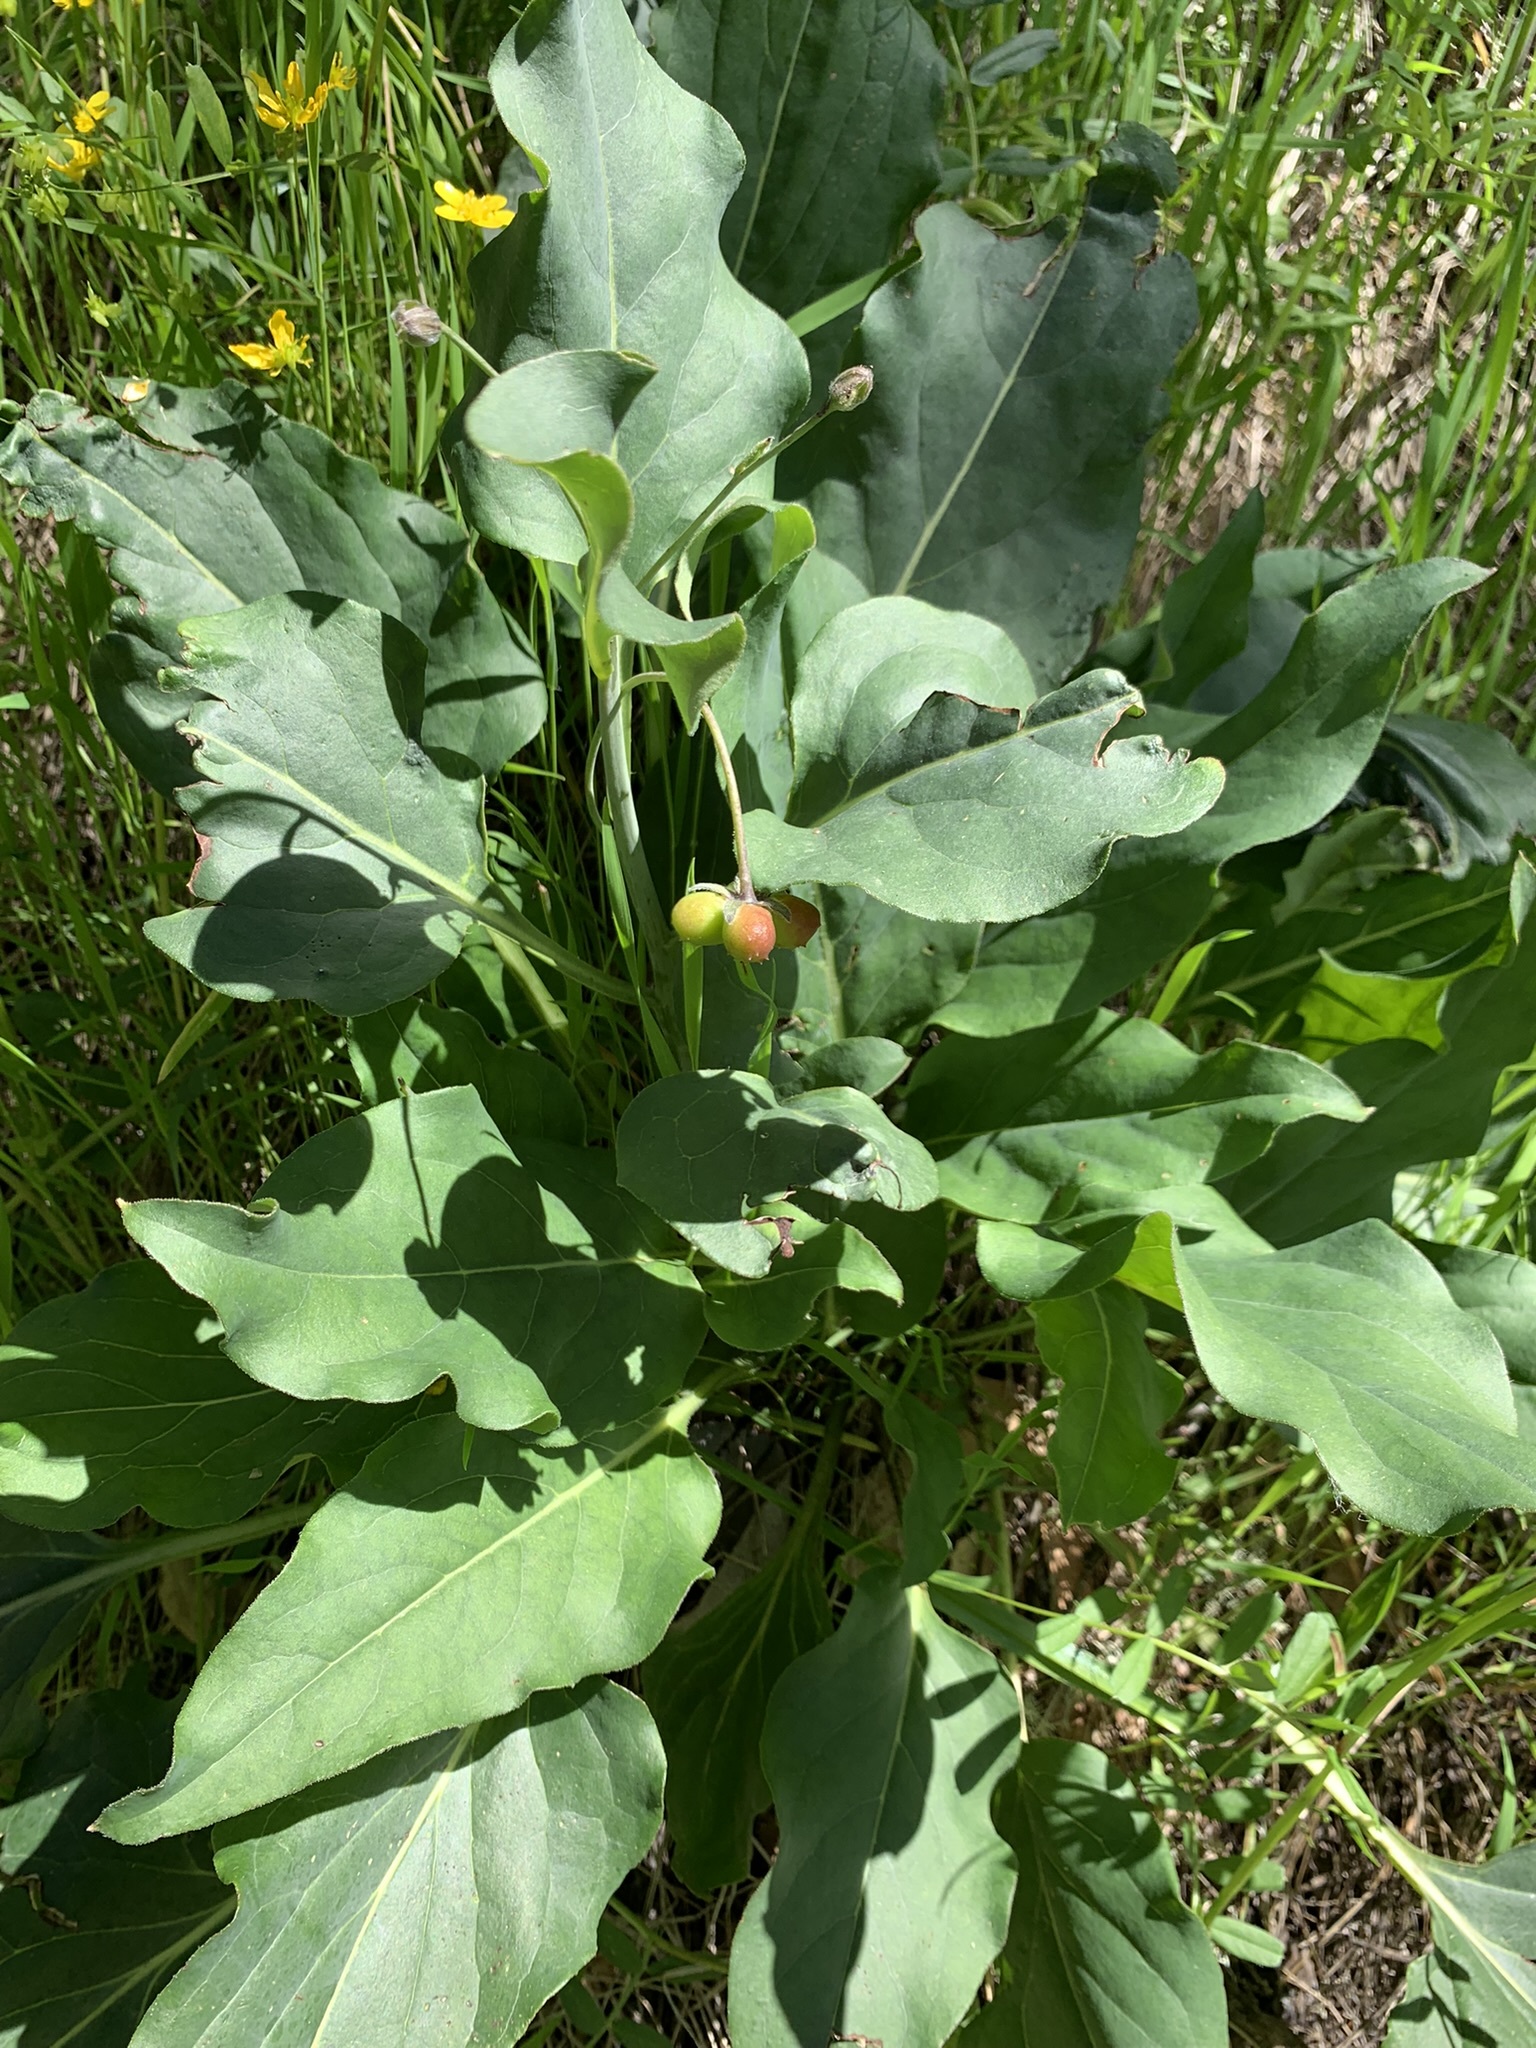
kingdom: Plantae
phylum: Tracheophyta
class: Magnoliopsida
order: Boraginales
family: Boraginaceae
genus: Adelinia
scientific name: Adelinia grande
